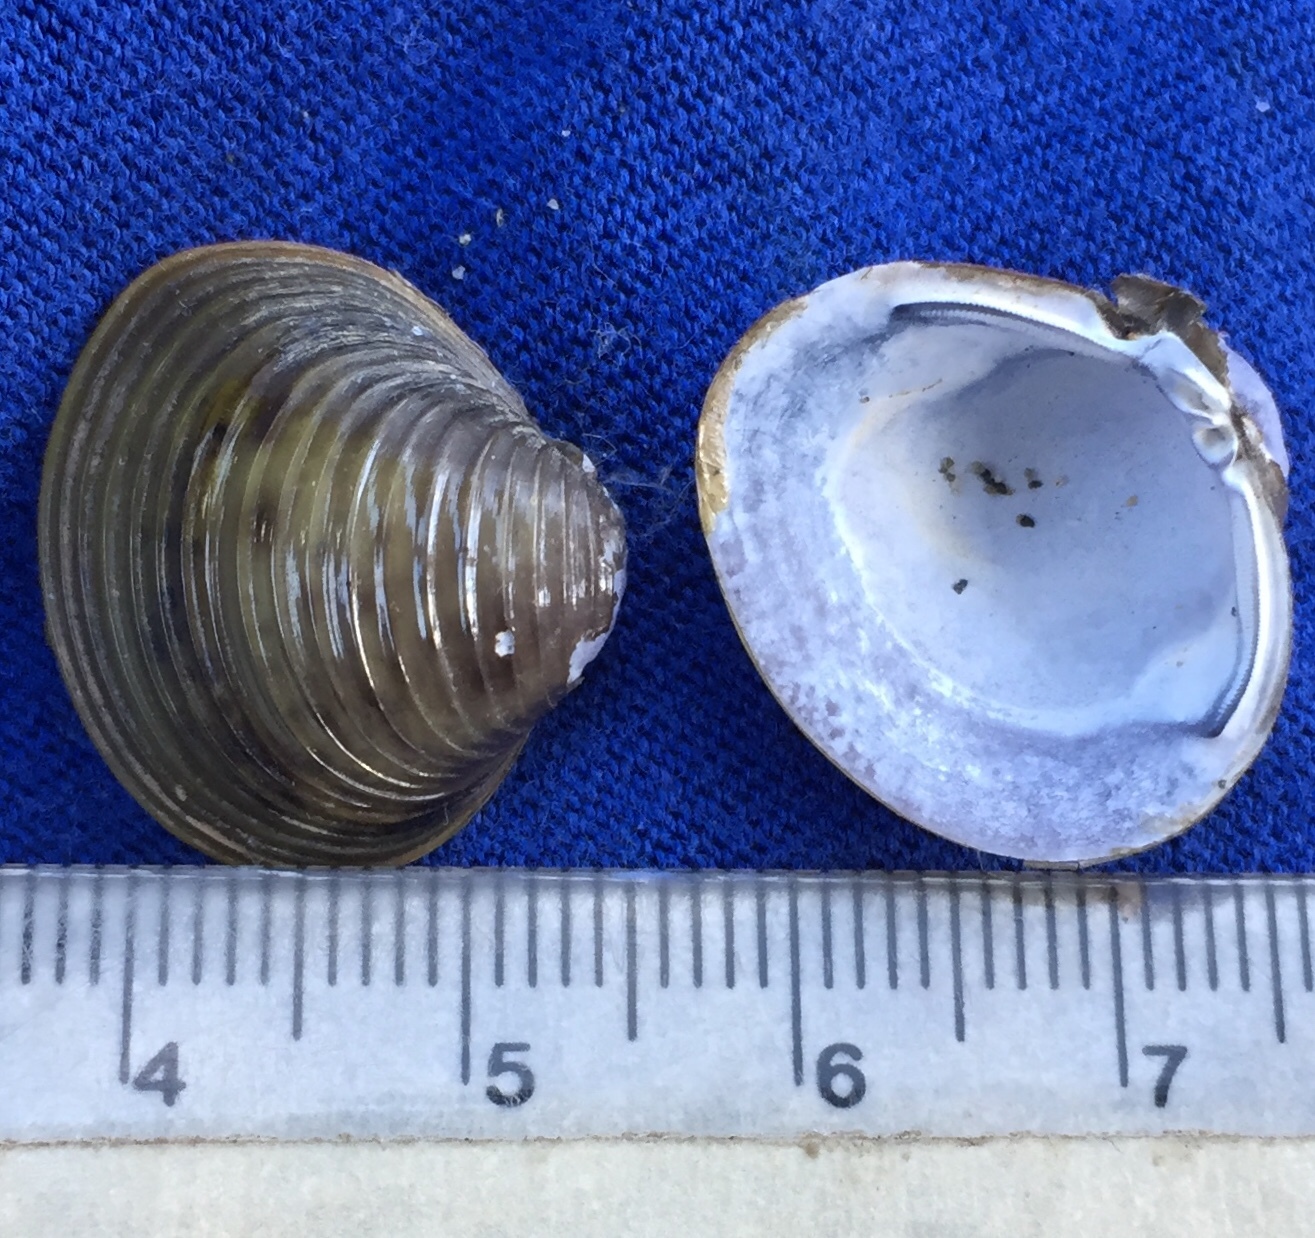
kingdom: Animalia
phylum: Mollusca
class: Bivalvia
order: Venerida
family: Cyrenidae
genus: Corbicula
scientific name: Corbicula fluminea
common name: Asian clam
